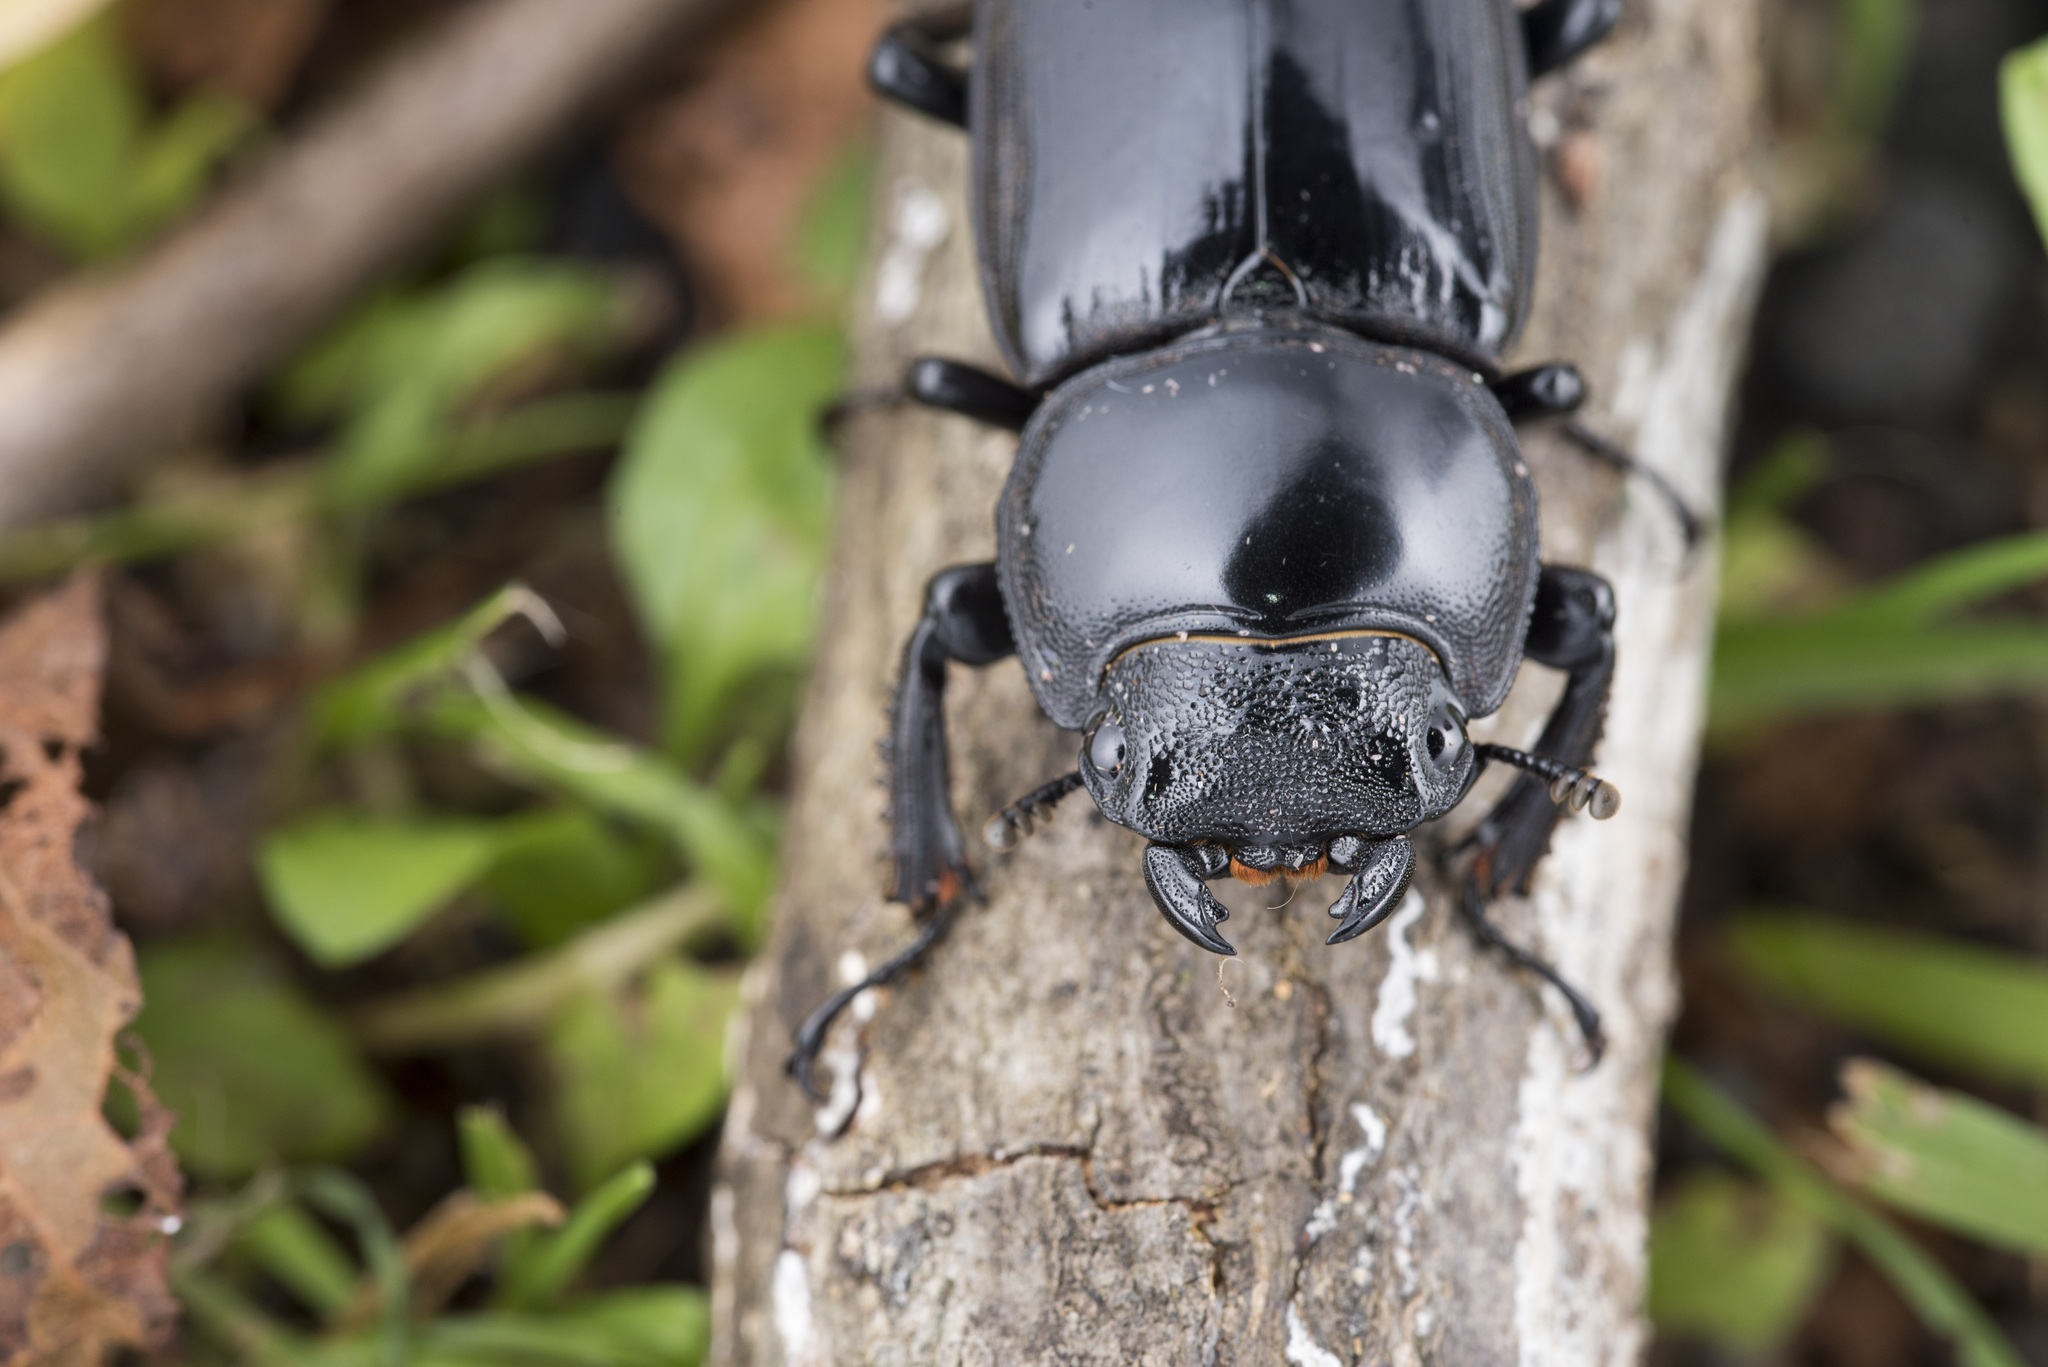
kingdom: Animalia
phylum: Arthropoda
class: Insecta
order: Coleoptera
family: Lucanidae
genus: Dorcus
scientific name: Dorcus schenklingi
